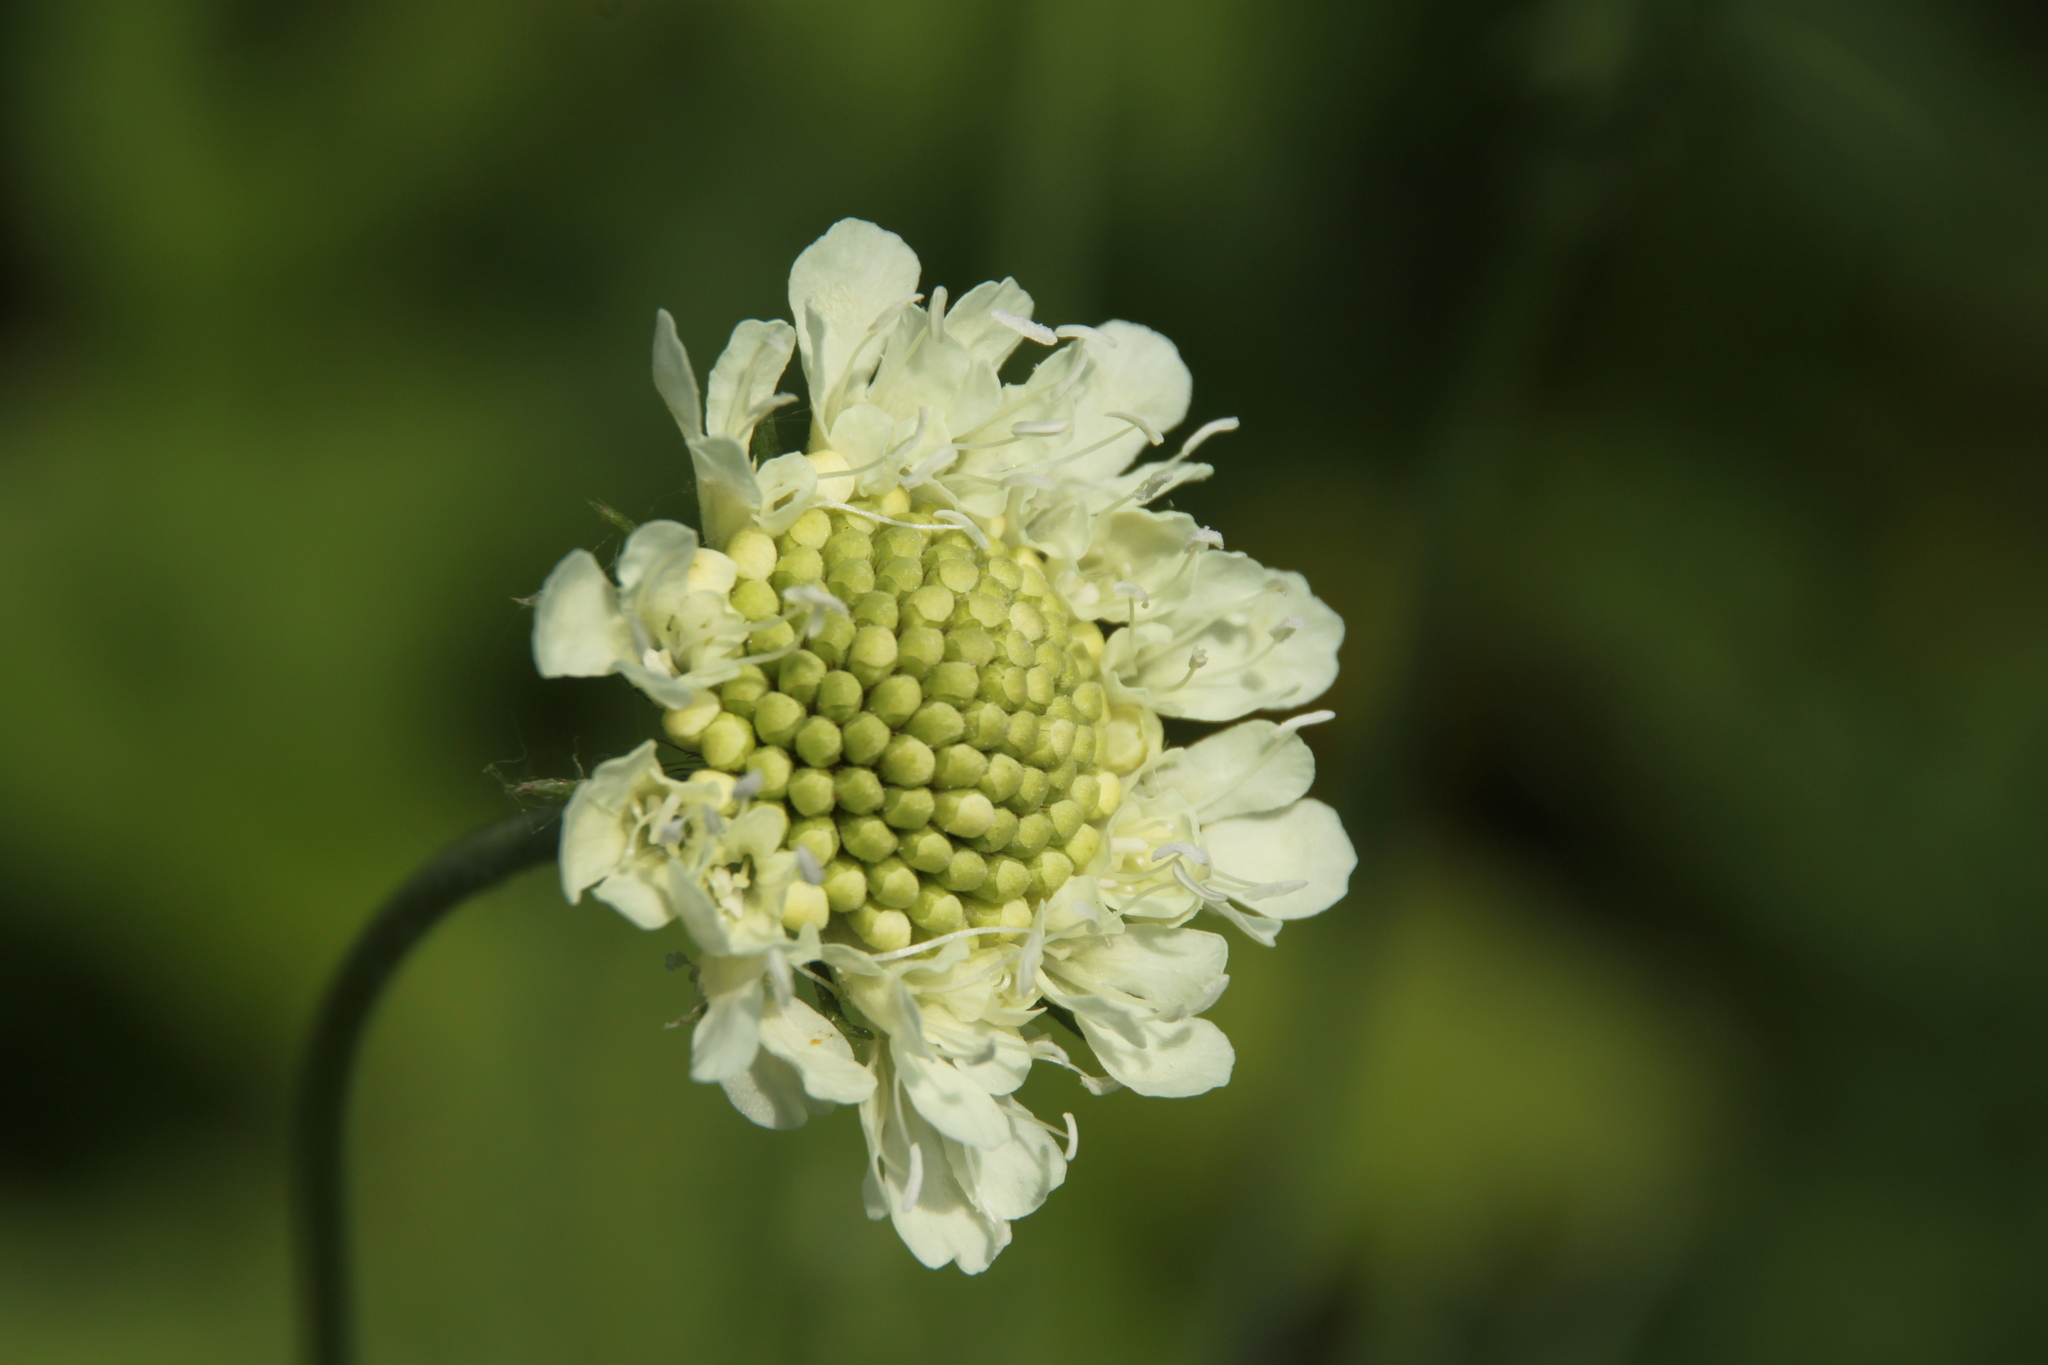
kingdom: Plantae
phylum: Tracheophyta
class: Magnoliopsida
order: Dipsacales
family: Caprifoliaceae
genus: Scabiosa
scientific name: Scabiosa ochroleuca
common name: Cream pincushions
